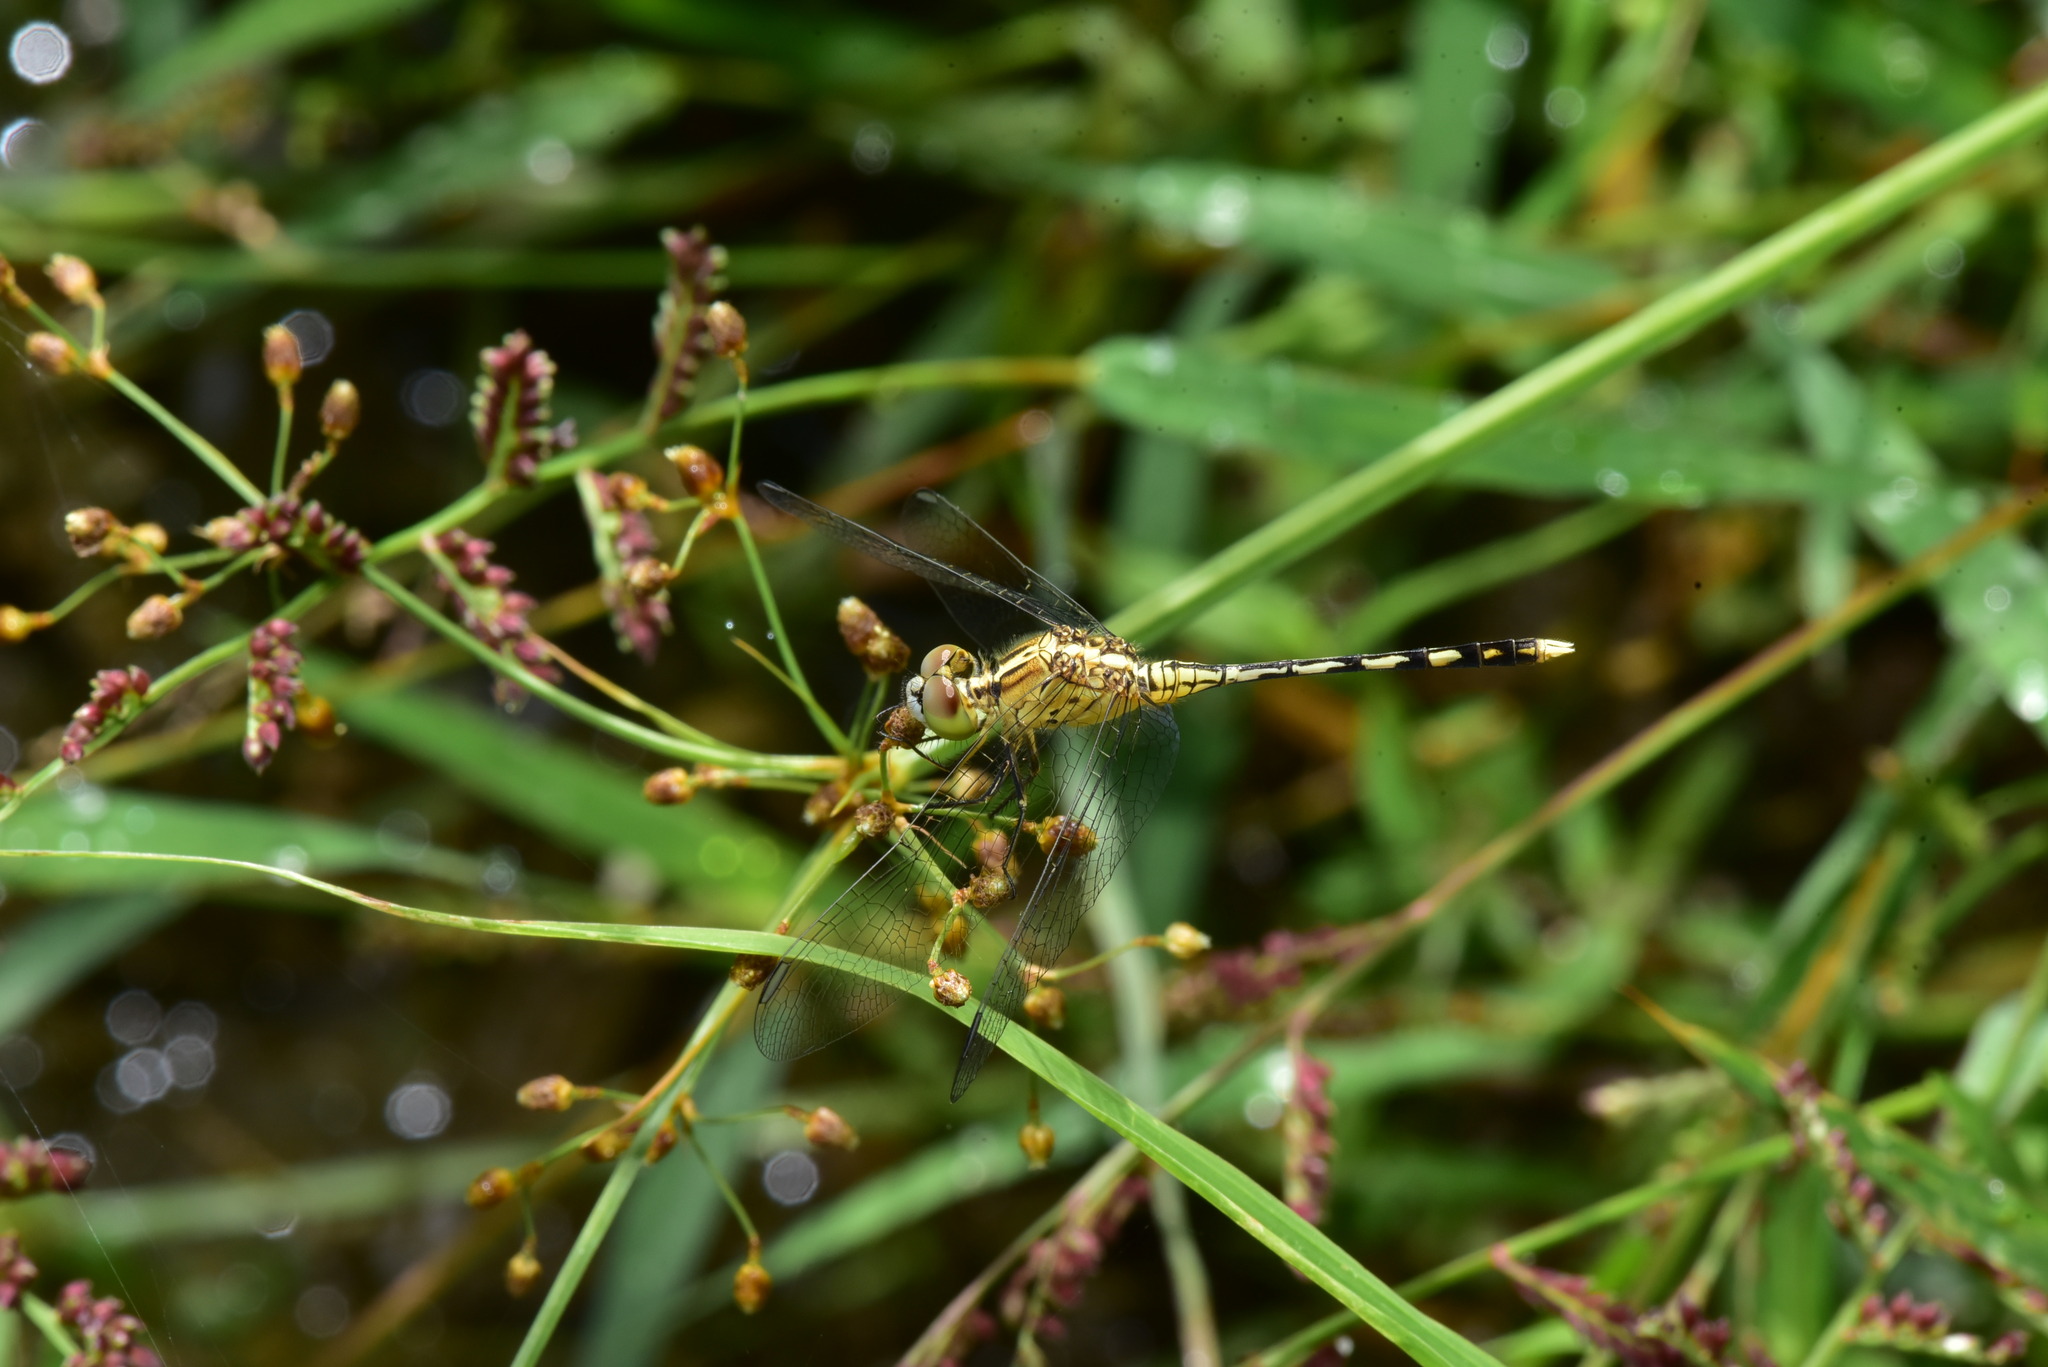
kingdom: Animalia
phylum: Arthropoda
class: Insecta
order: Odonata
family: Libellulidae
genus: Diplacodes
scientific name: Diplacodes trivialis
